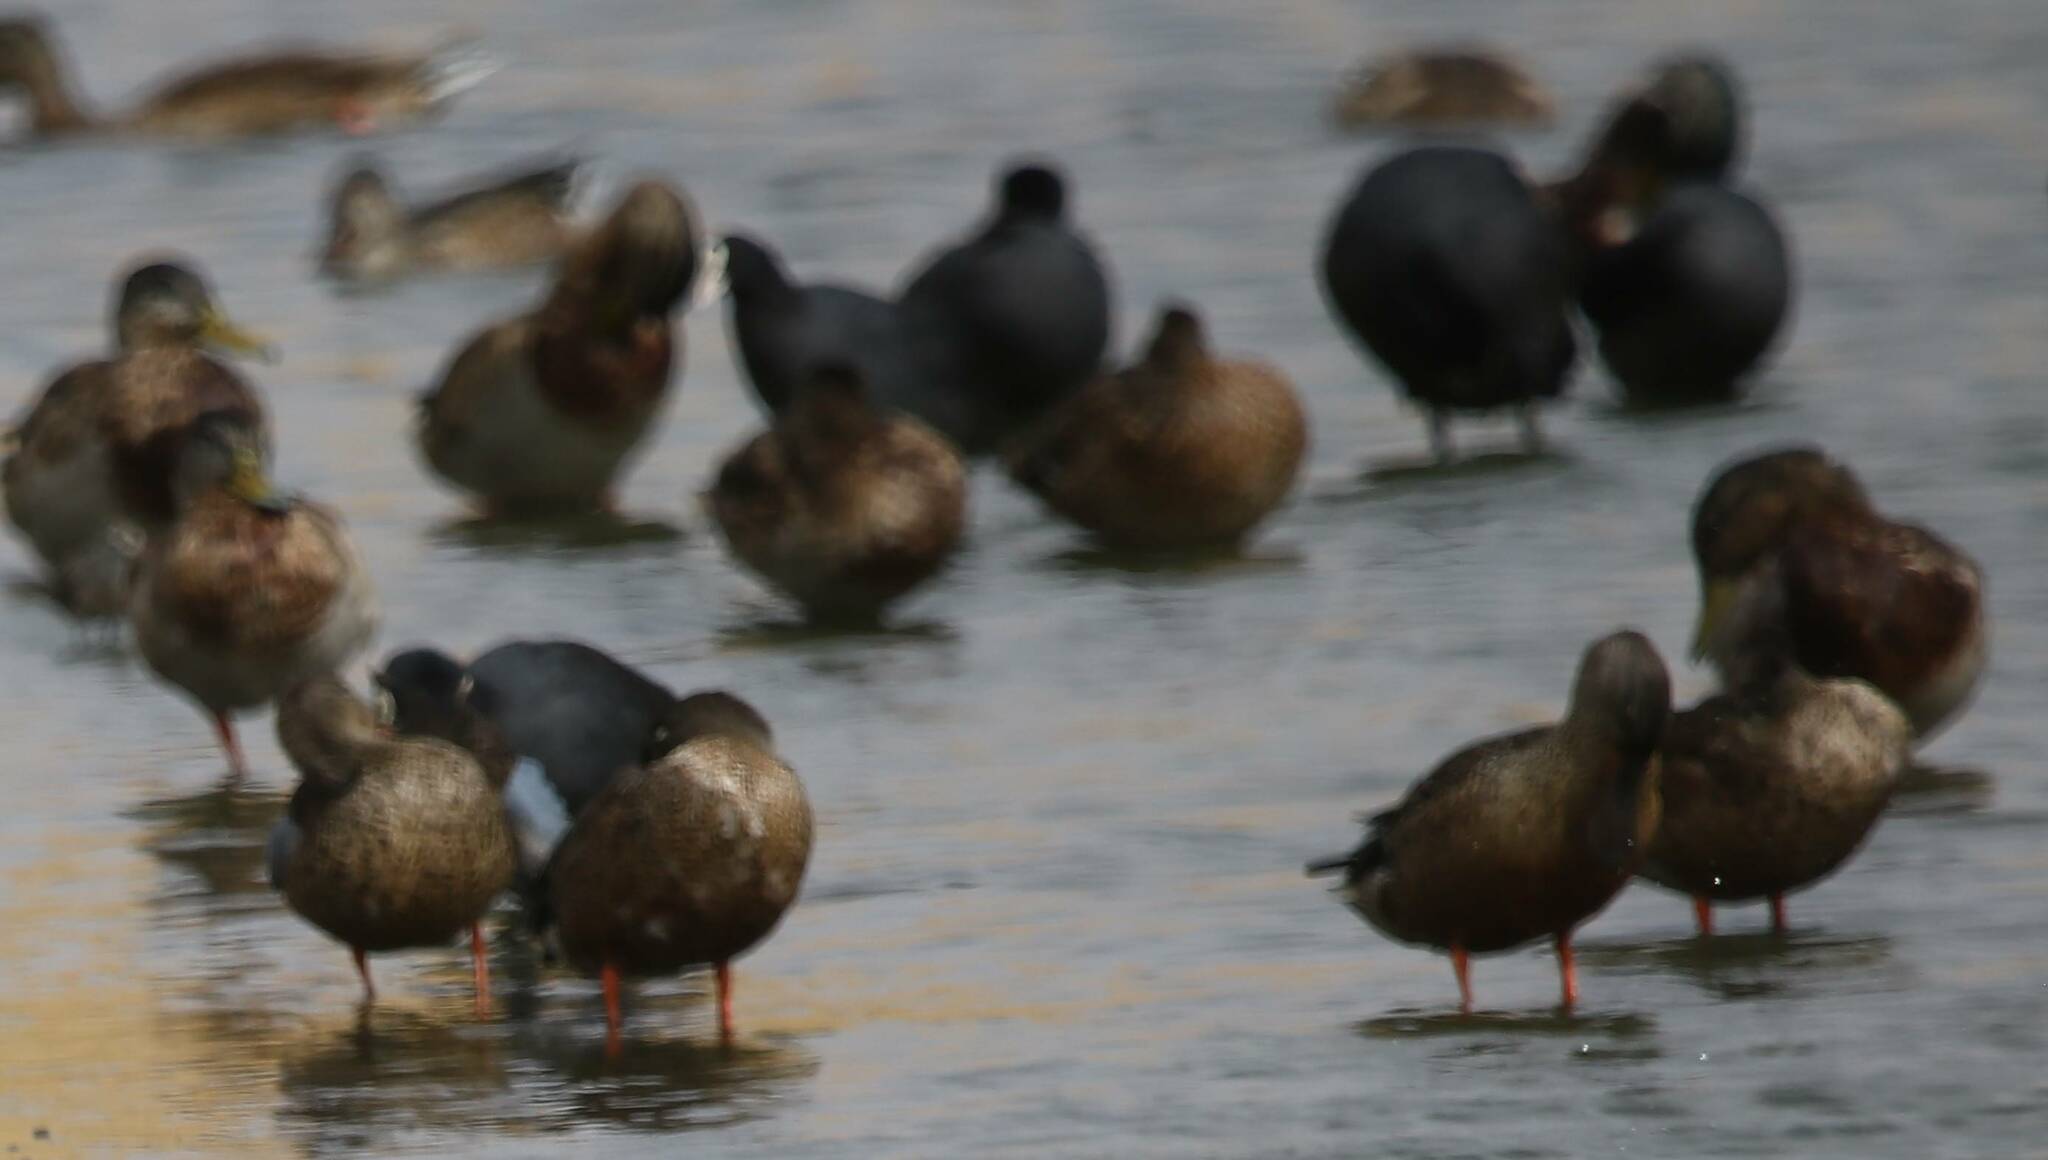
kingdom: Animalia
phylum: Chordata
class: Aves
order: Anseriformes
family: Anatidae
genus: Spatula
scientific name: Spatula clypeata
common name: Northern shoveler
